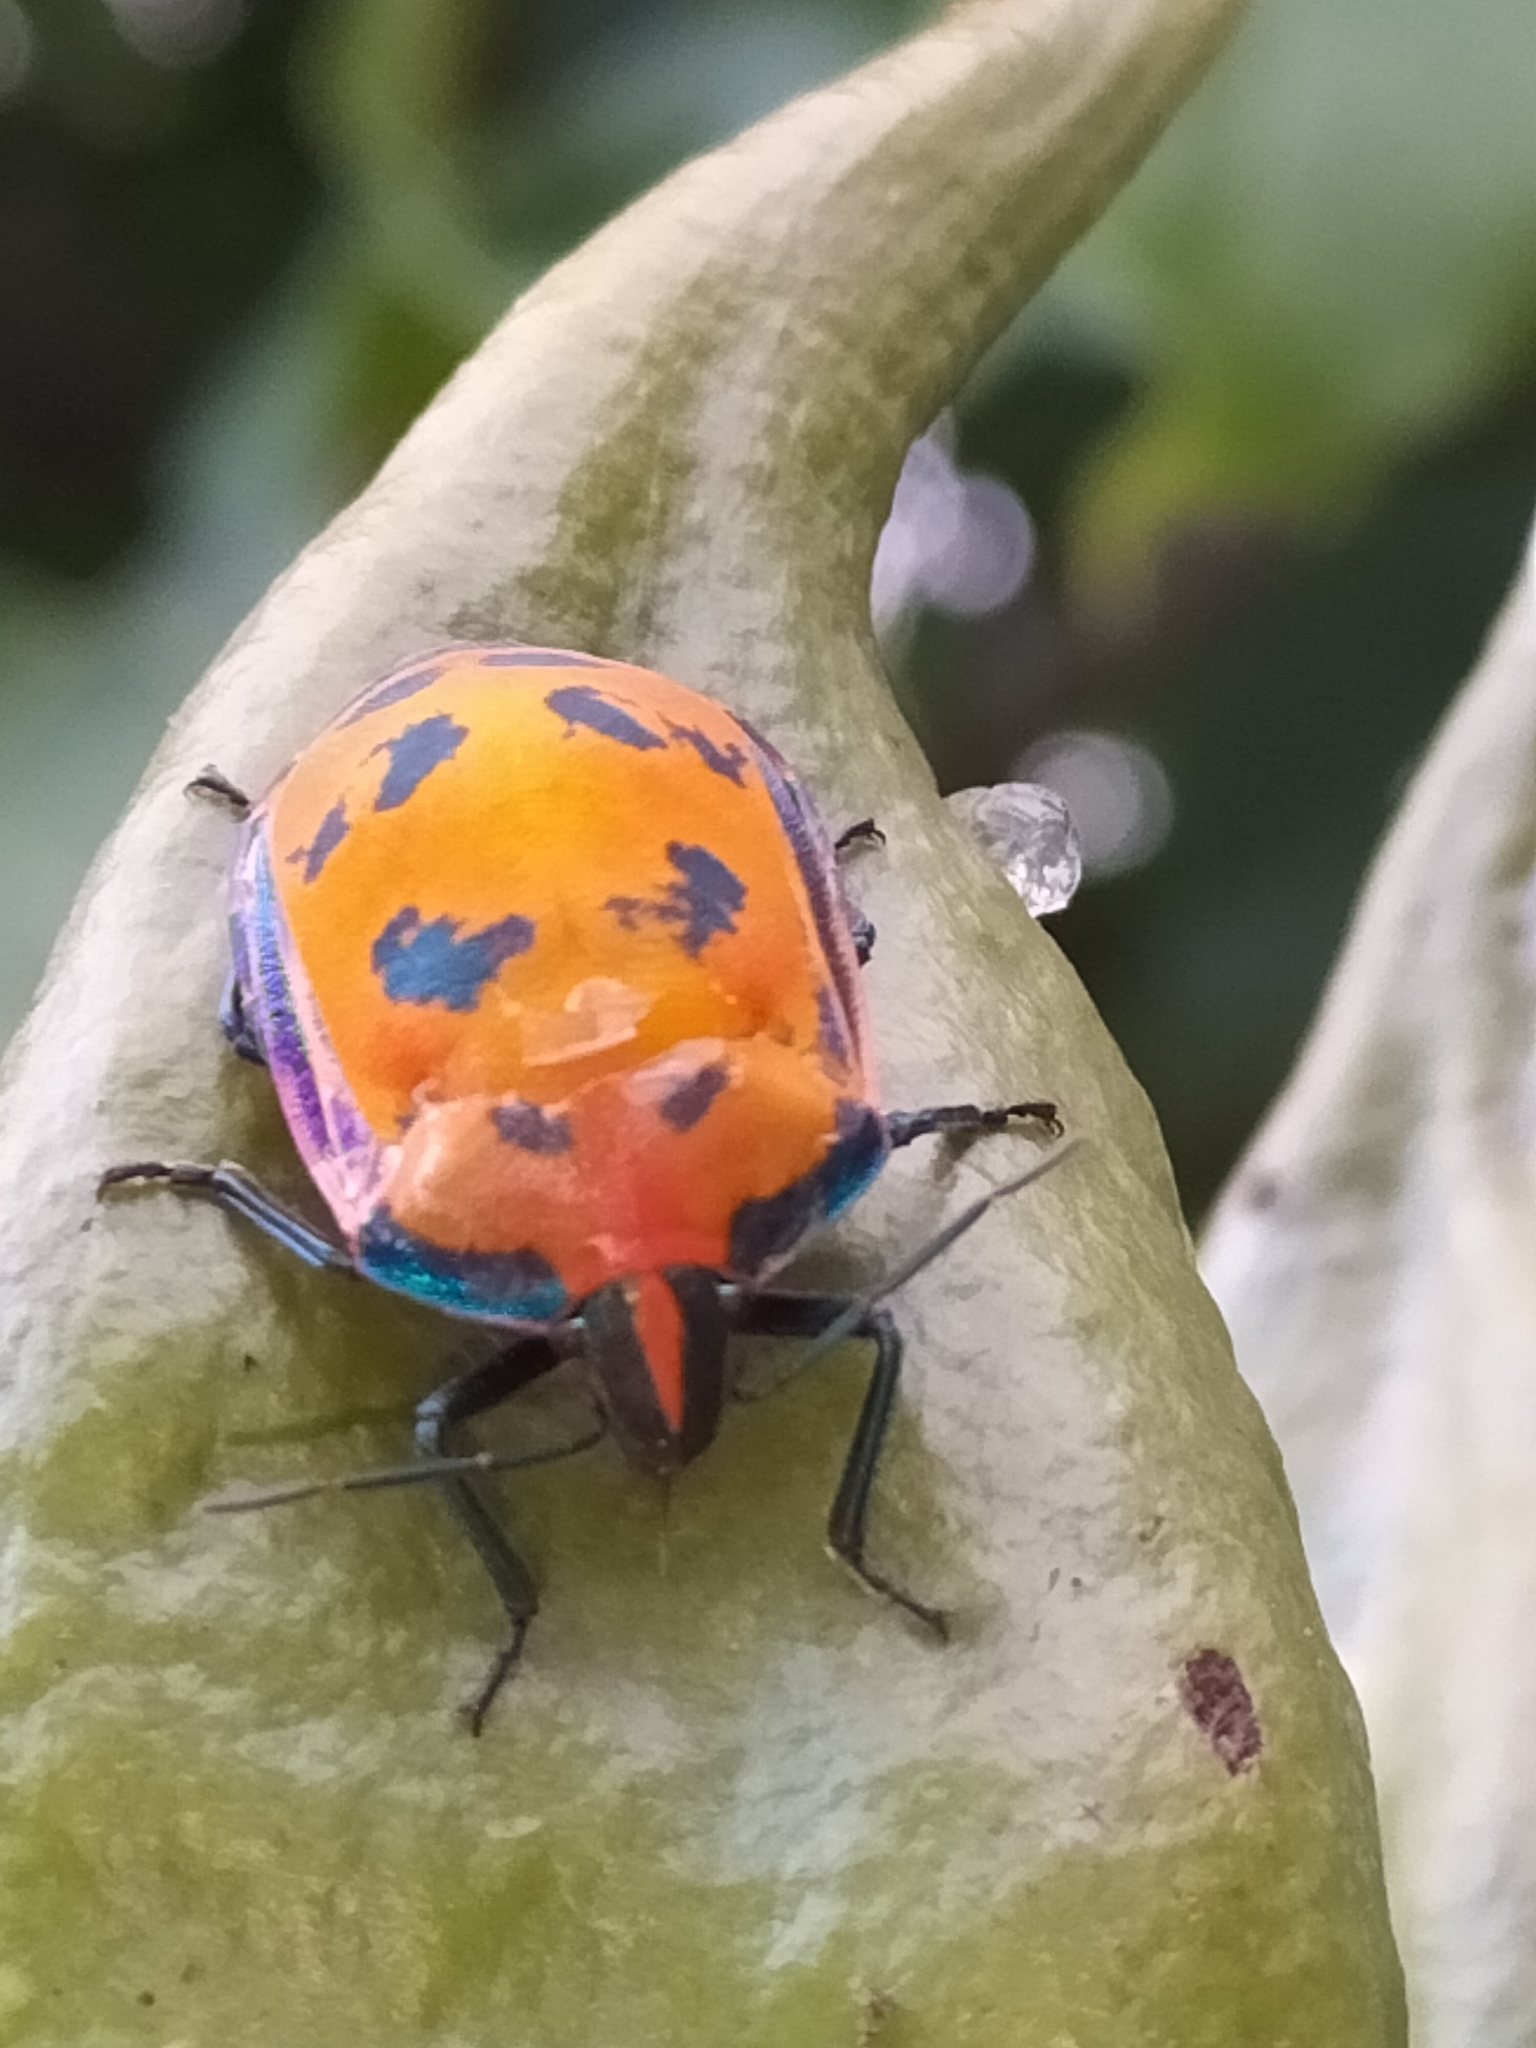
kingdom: Animalia
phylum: Arthropoda
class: Insecta
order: Hemiptera
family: Scutelleridae
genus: Tectocoris
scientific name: Tectocoris diophthalmus
